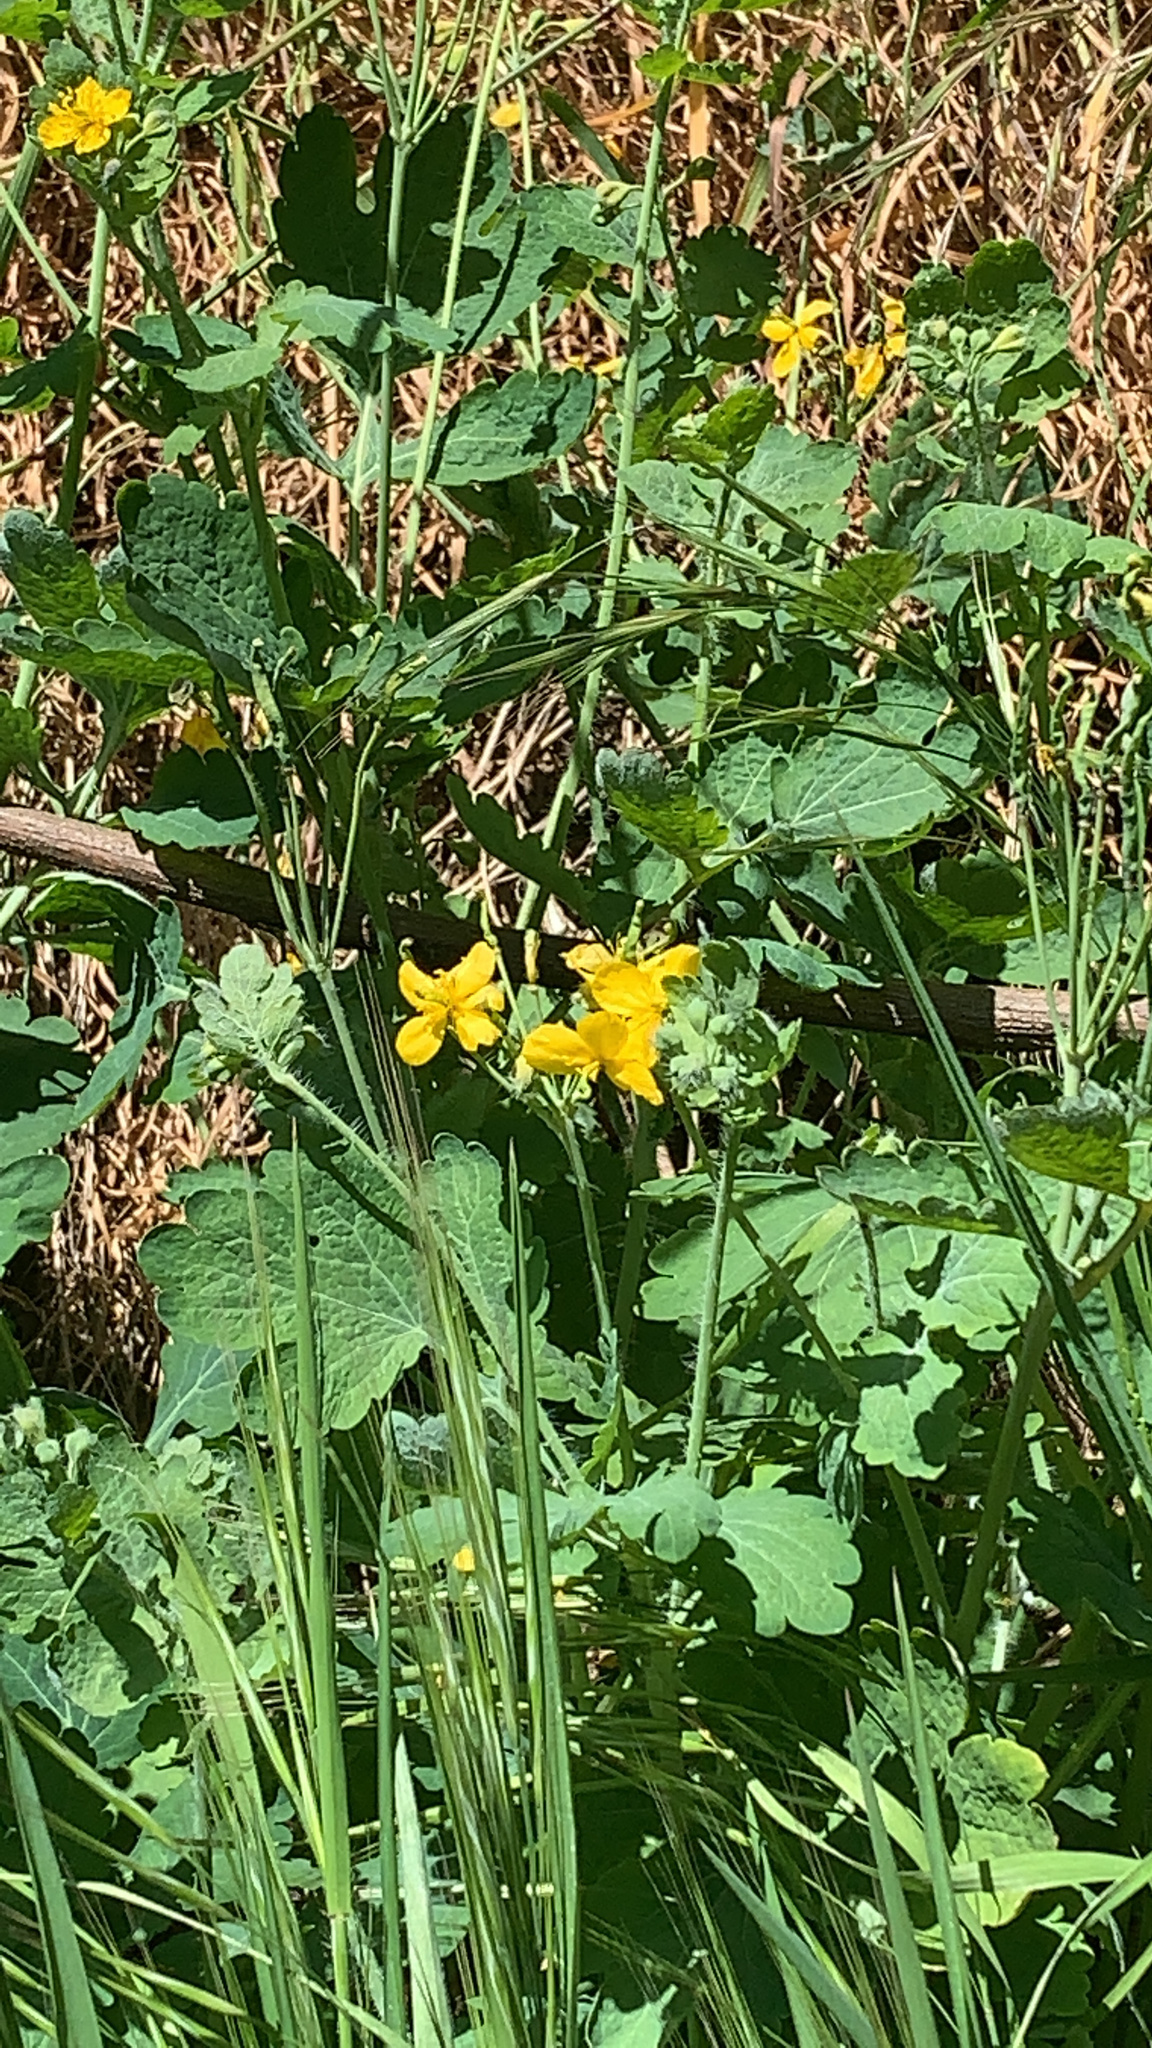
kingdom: Plantae
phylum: Tracheophyta
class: Magnoliopsida
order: Ranunculales
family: Papaveraceae
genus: Chelidonium
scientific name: Chelidonium majus
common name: Greater celandine
